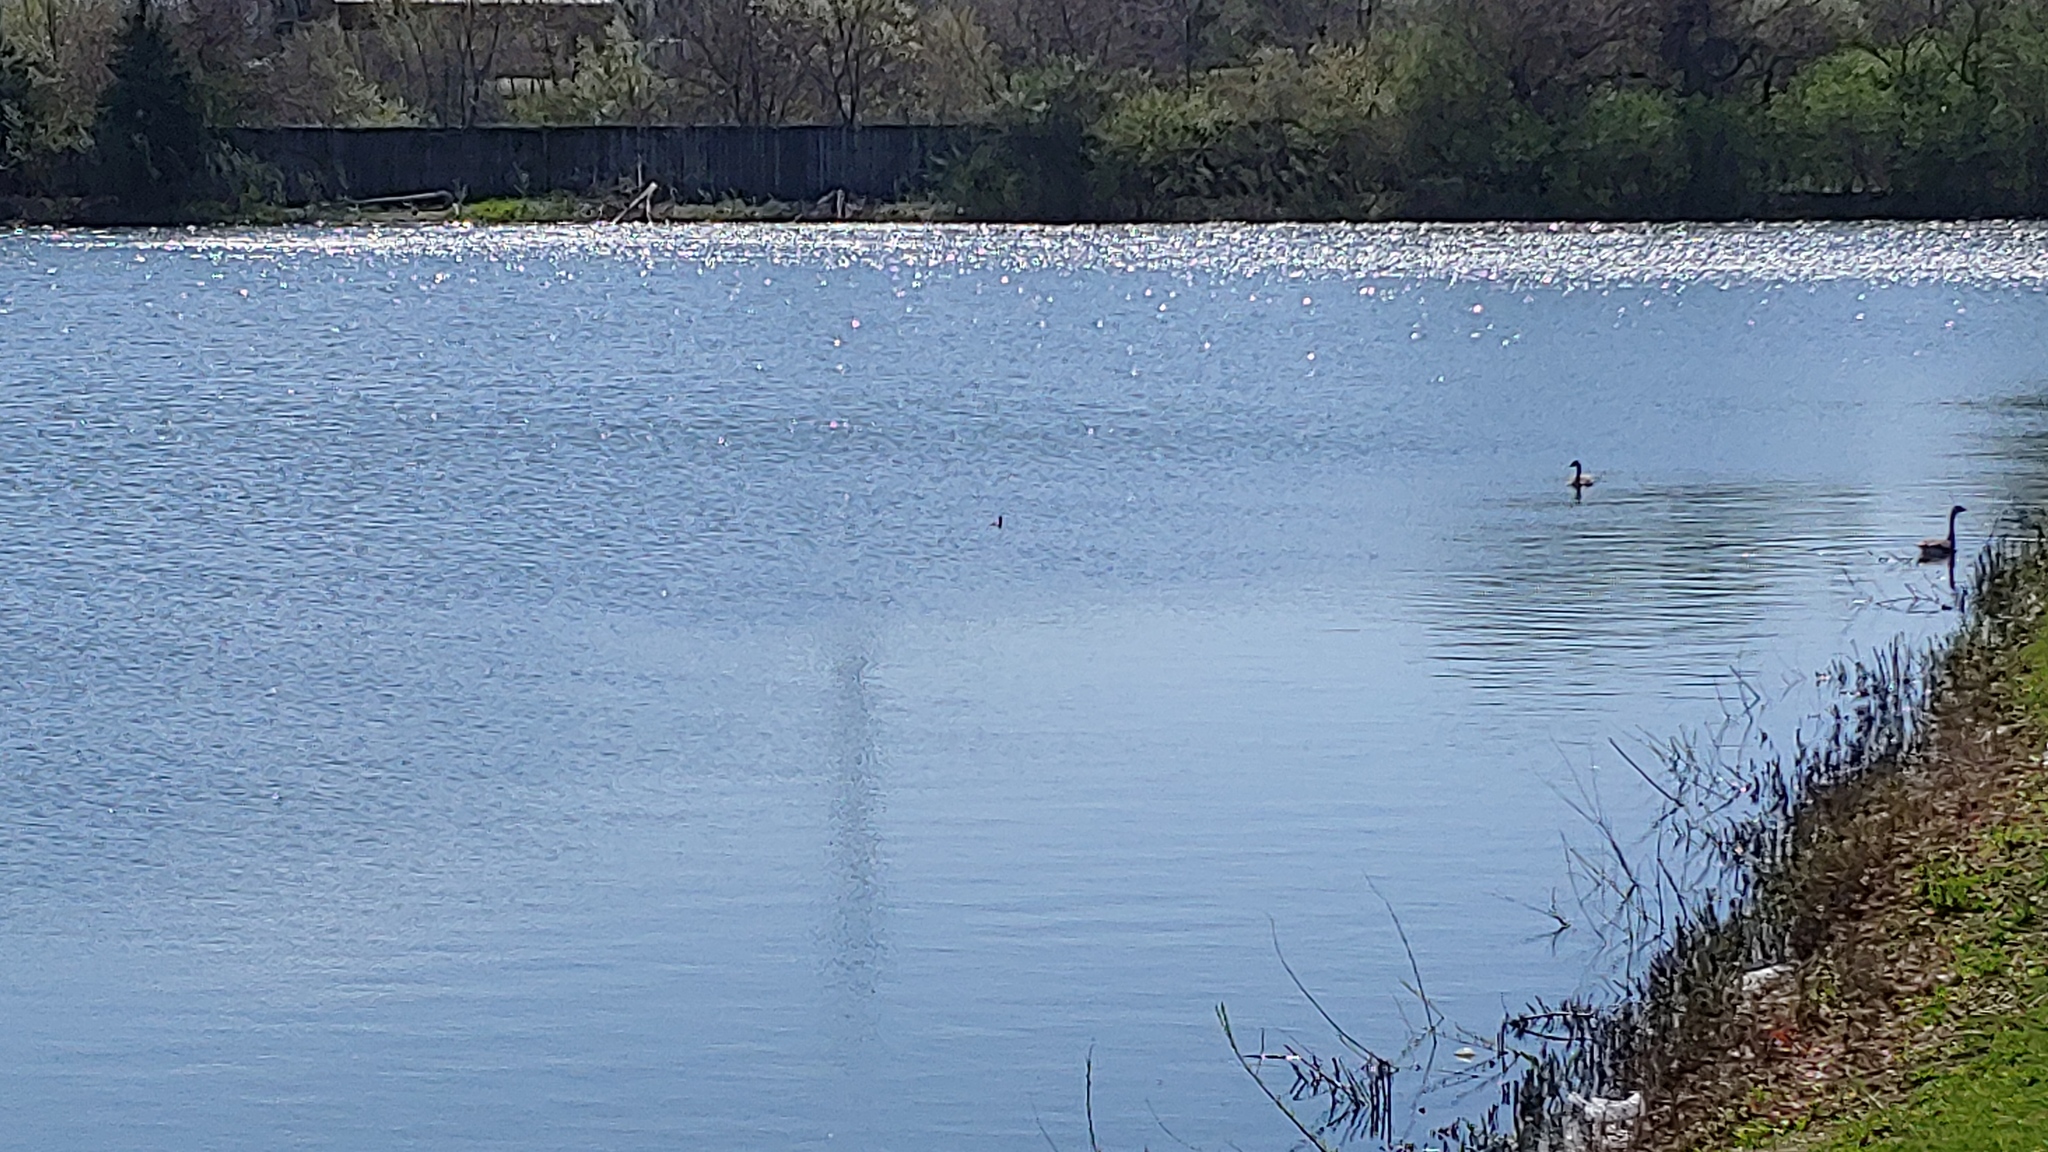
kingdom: Animalia
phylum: Chordata
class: Aves
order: Podicipediformes
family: Podicipedidae
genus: Podilymbus
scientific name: Podilymbus podiceps
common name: Pied-billed grebe
